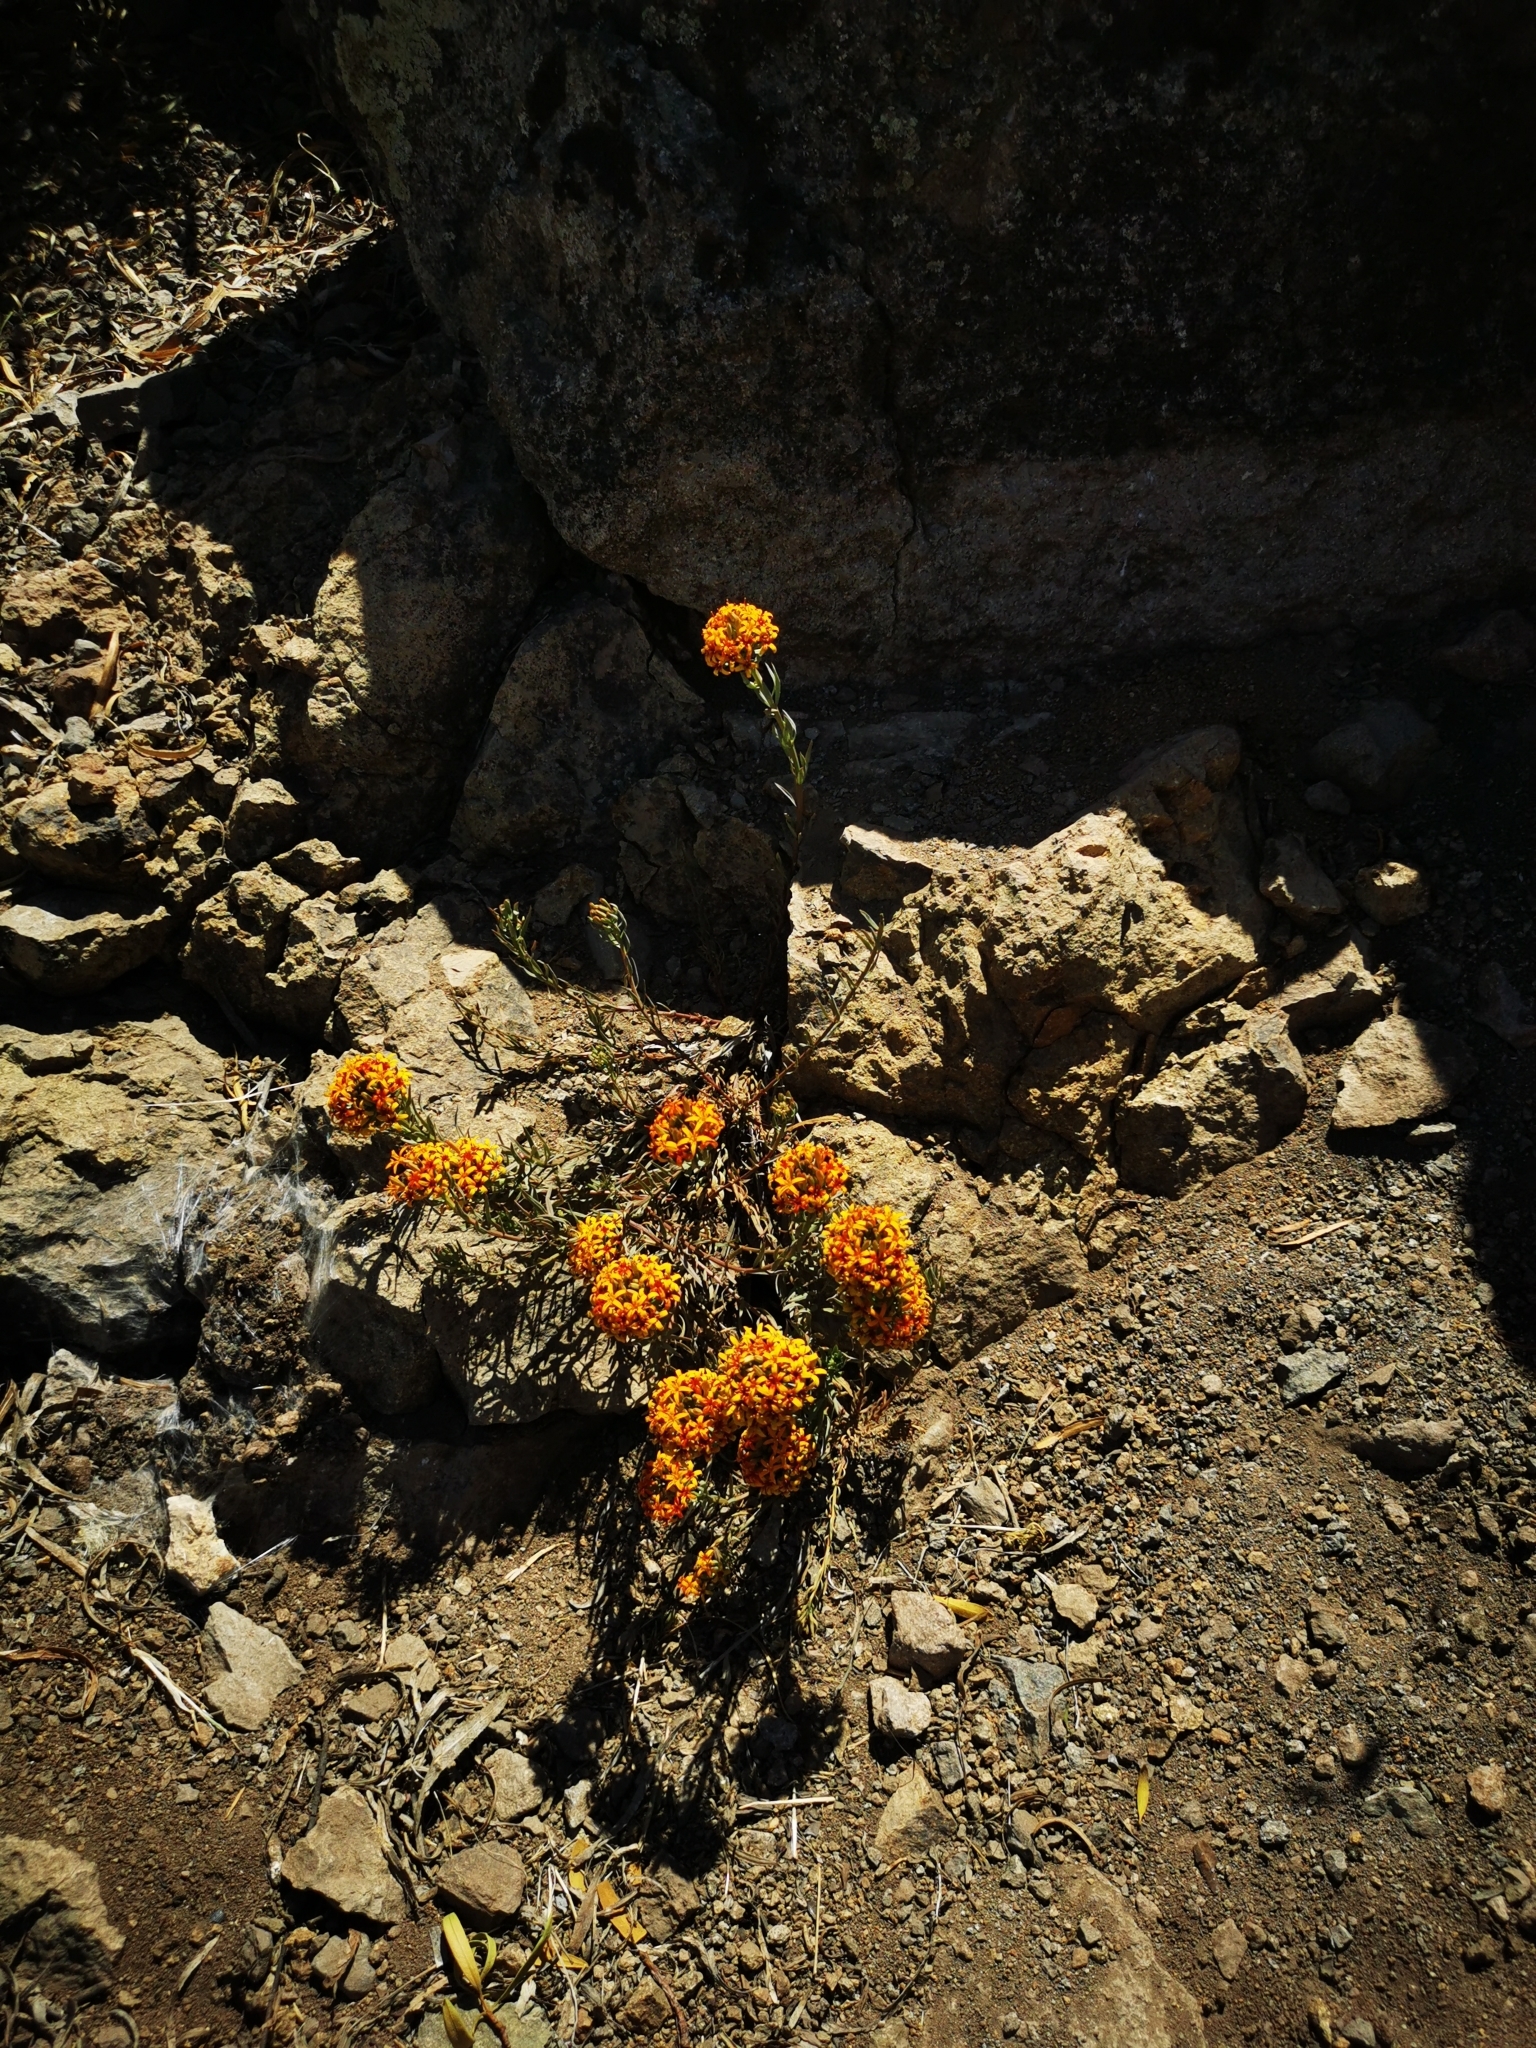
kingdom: Plantae
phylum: Tracheophyta
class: Magnoliopsida
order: Santalales
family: Schoepfiaceae
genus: Quinchamalium
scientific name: Quinchamalium chilense
